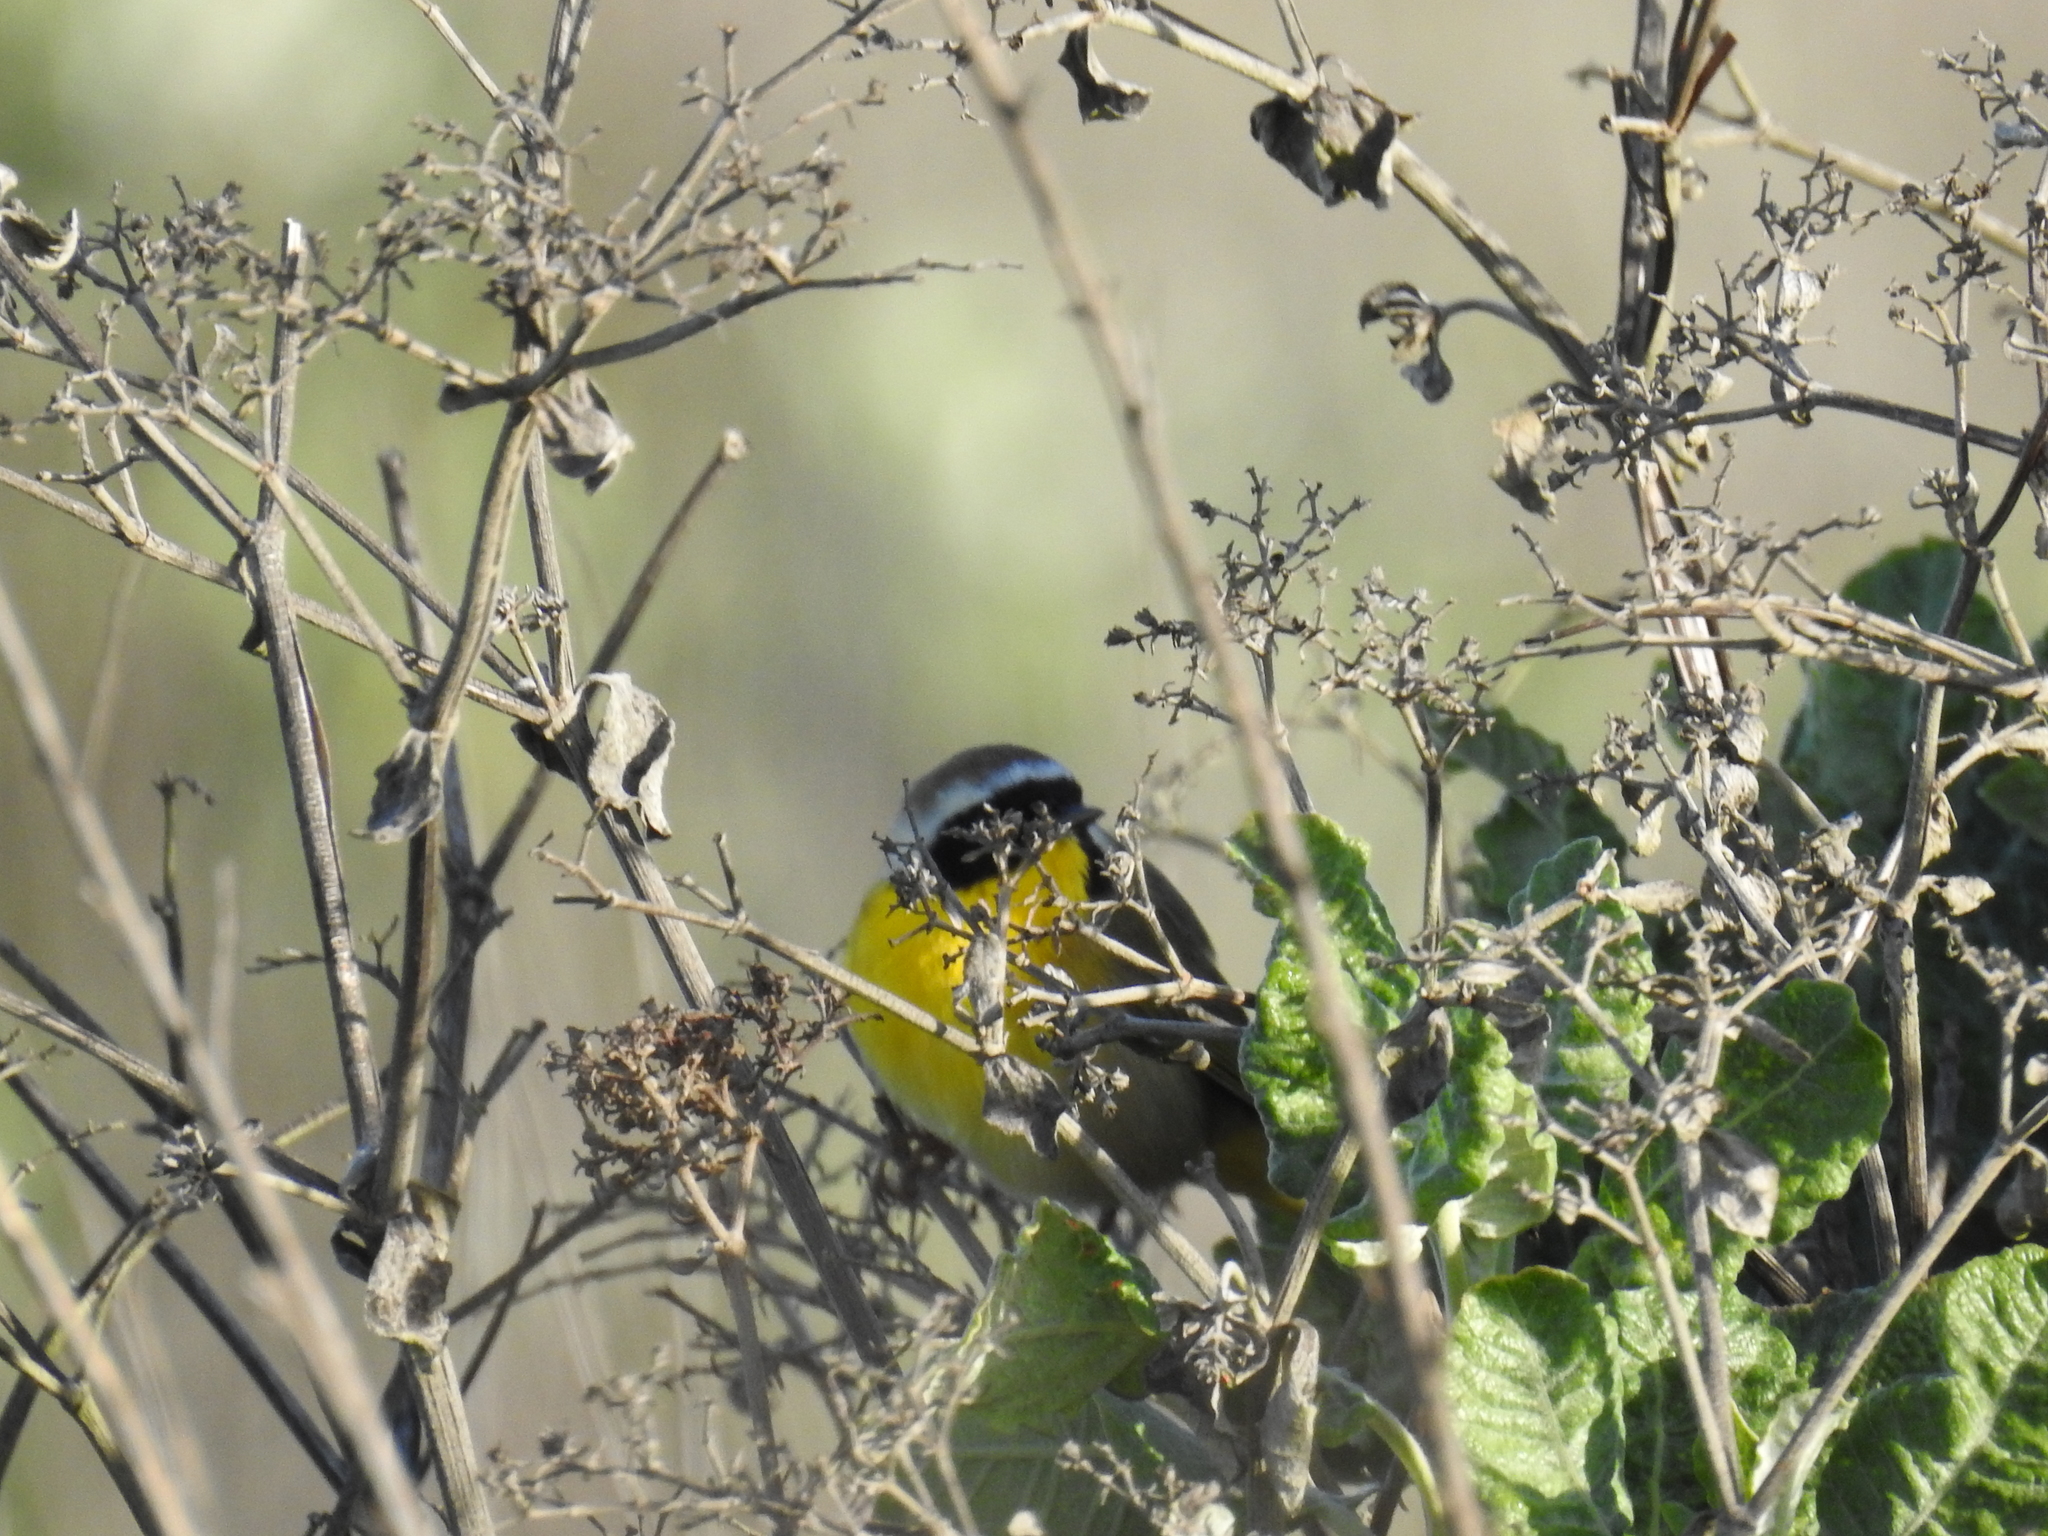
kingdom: Animalia
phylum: Chordata
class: Aves
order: Passeriformes
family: Parulidae
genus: Geothlypis
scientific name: Geothlypis trichas
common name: Common yellowthroat
